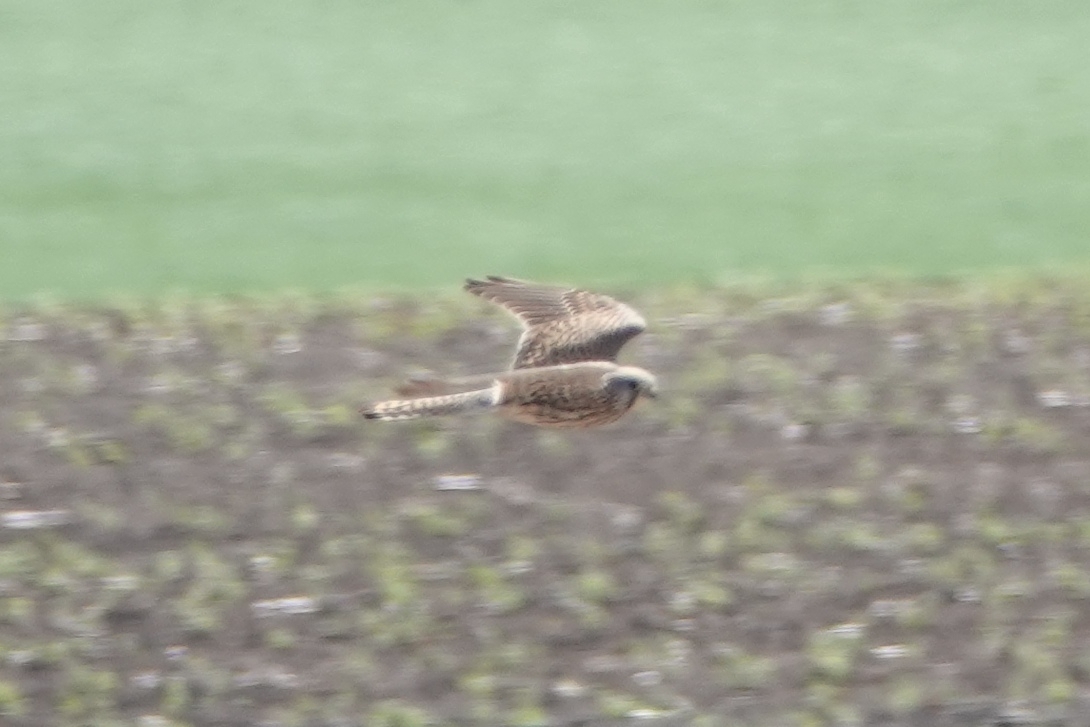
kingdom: Animalia
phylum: Chordata
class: Aves
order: Falconiformes
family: Falconidae
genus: Falco
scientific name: Falco tinnunculus
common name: Common kestrel
